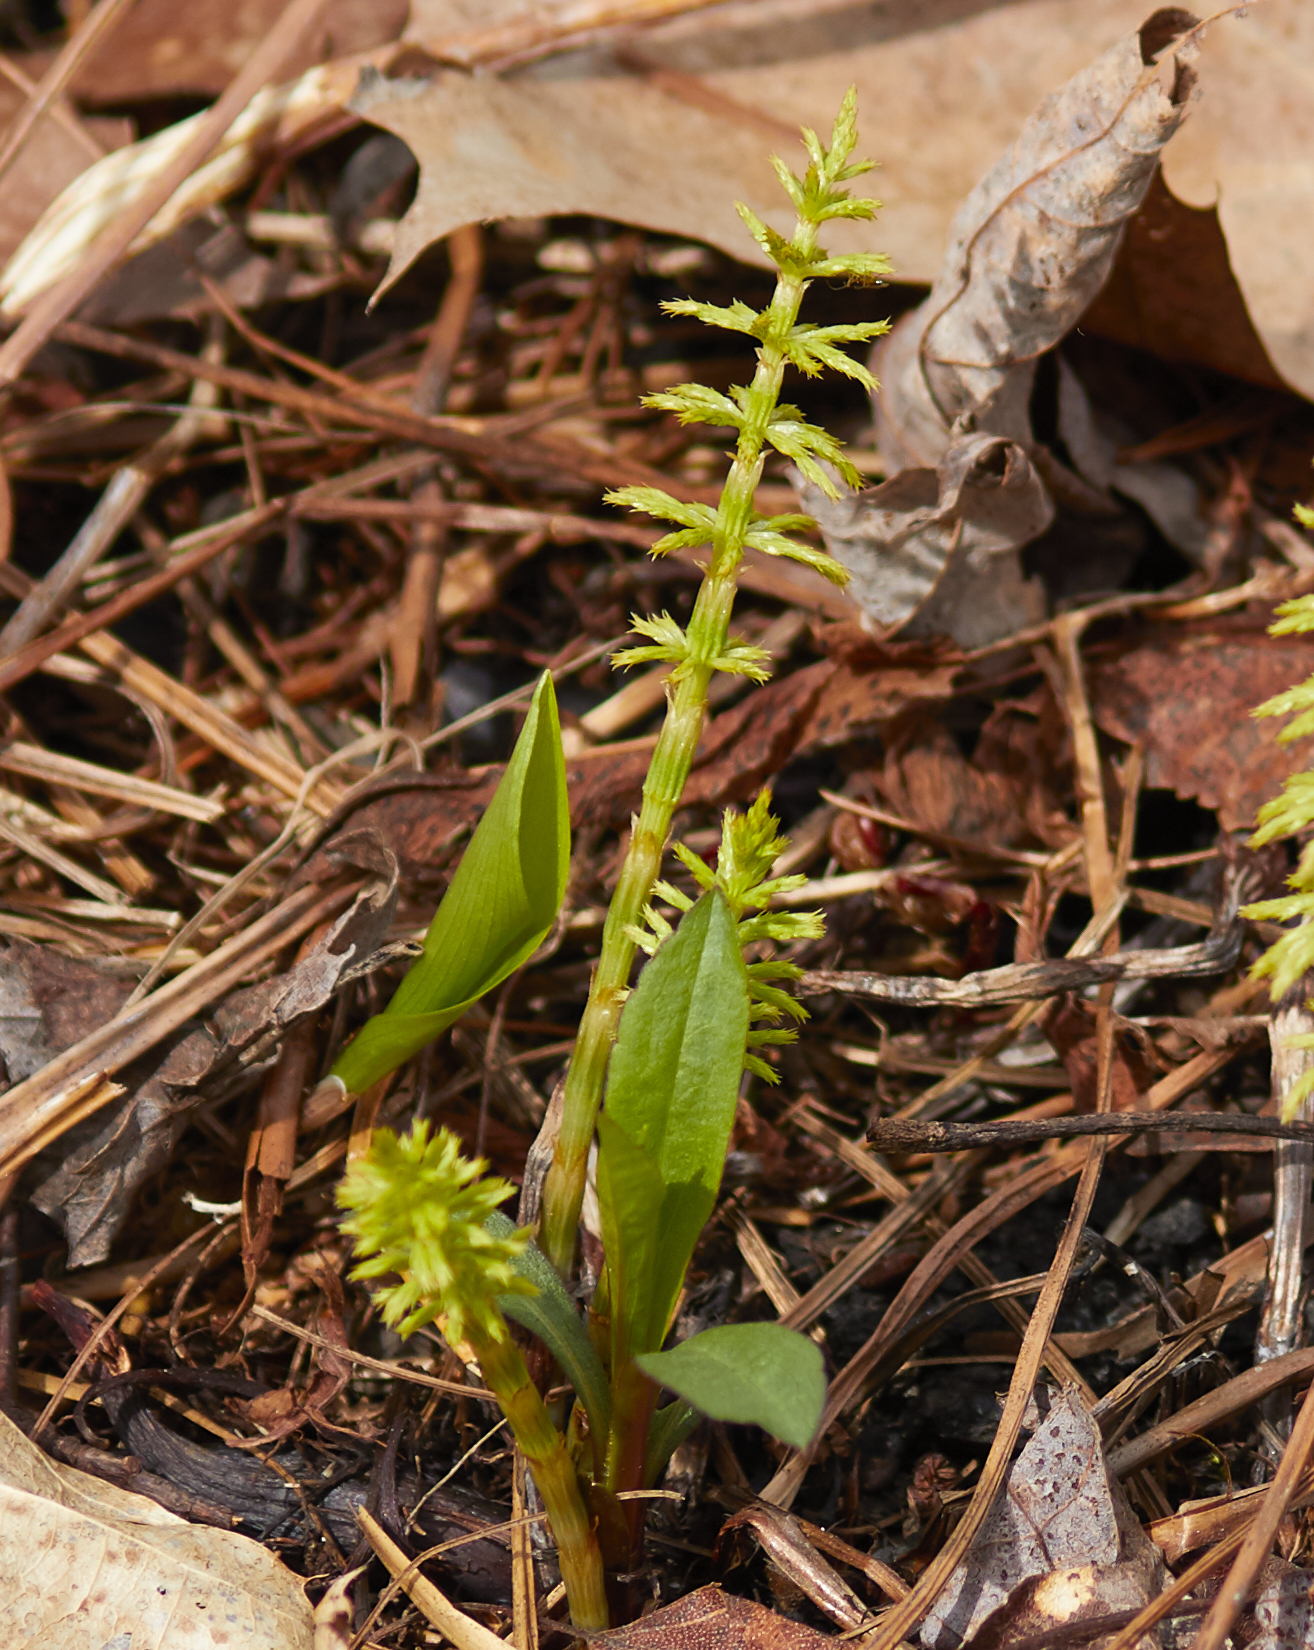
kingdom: Plantae
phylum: Tracheophyta
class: Polypodiopsida
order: Equisetales
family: Equisetaceae
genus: Equisetum
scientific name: Equisetum sylvaticum
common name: Wood horsetail
